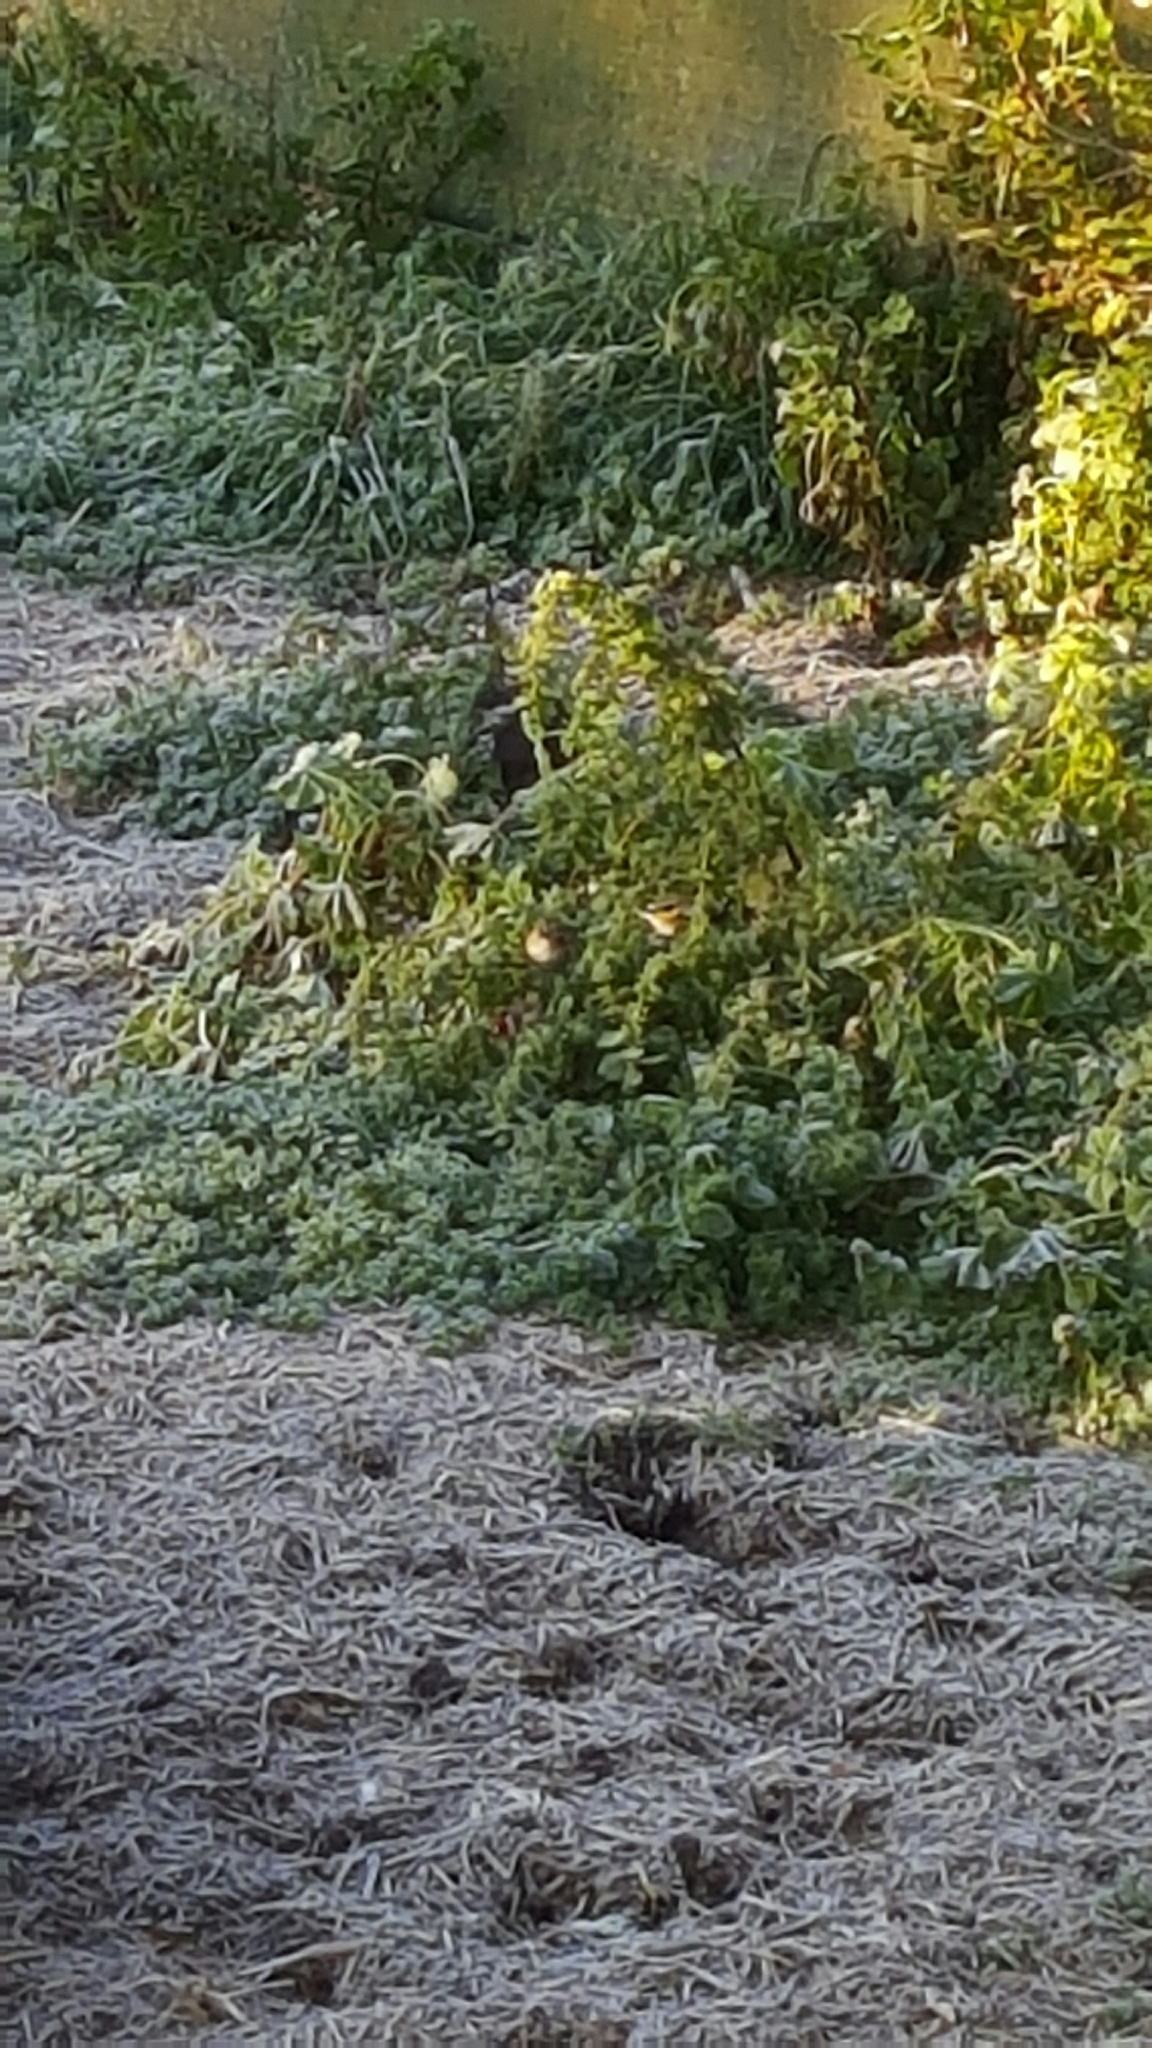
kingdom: Animalia
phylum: Chordata
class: Aves
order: Passeriformes
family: Fringillidae
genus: Carduelis
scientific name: Carduelis carduelis
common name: European goldfinch
